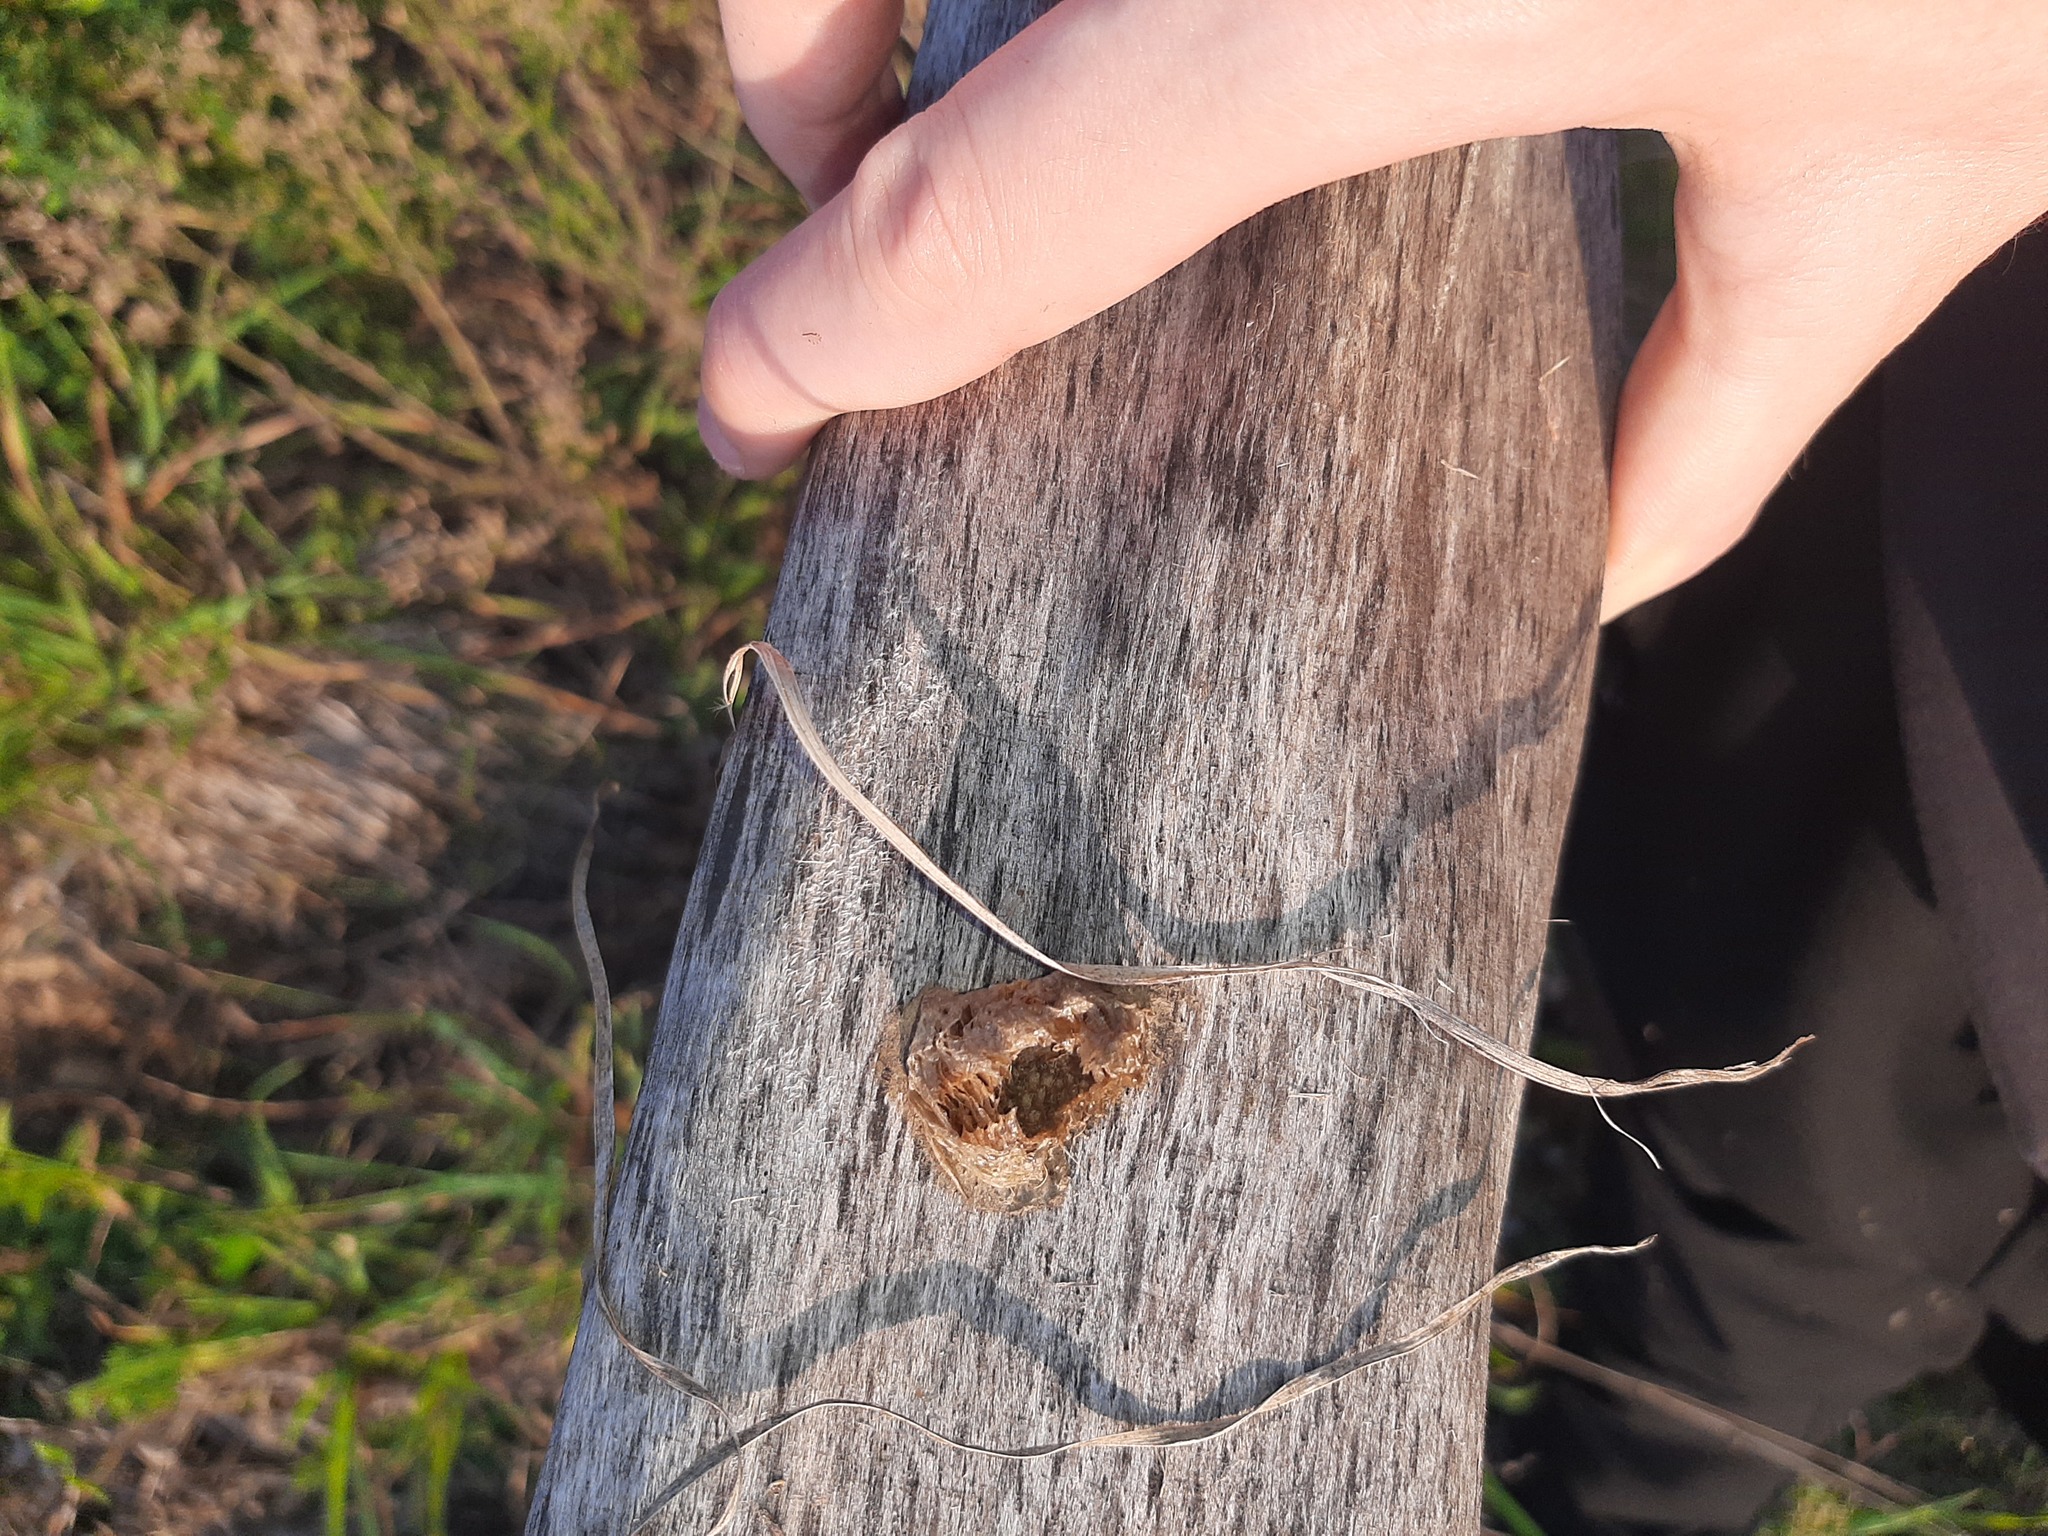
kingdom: Animalia
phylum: Arthropoda
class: Insecta
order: Mantodea
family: Mantidae
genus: Mantis
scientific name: Mantis religiosa
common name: Praying mantis
